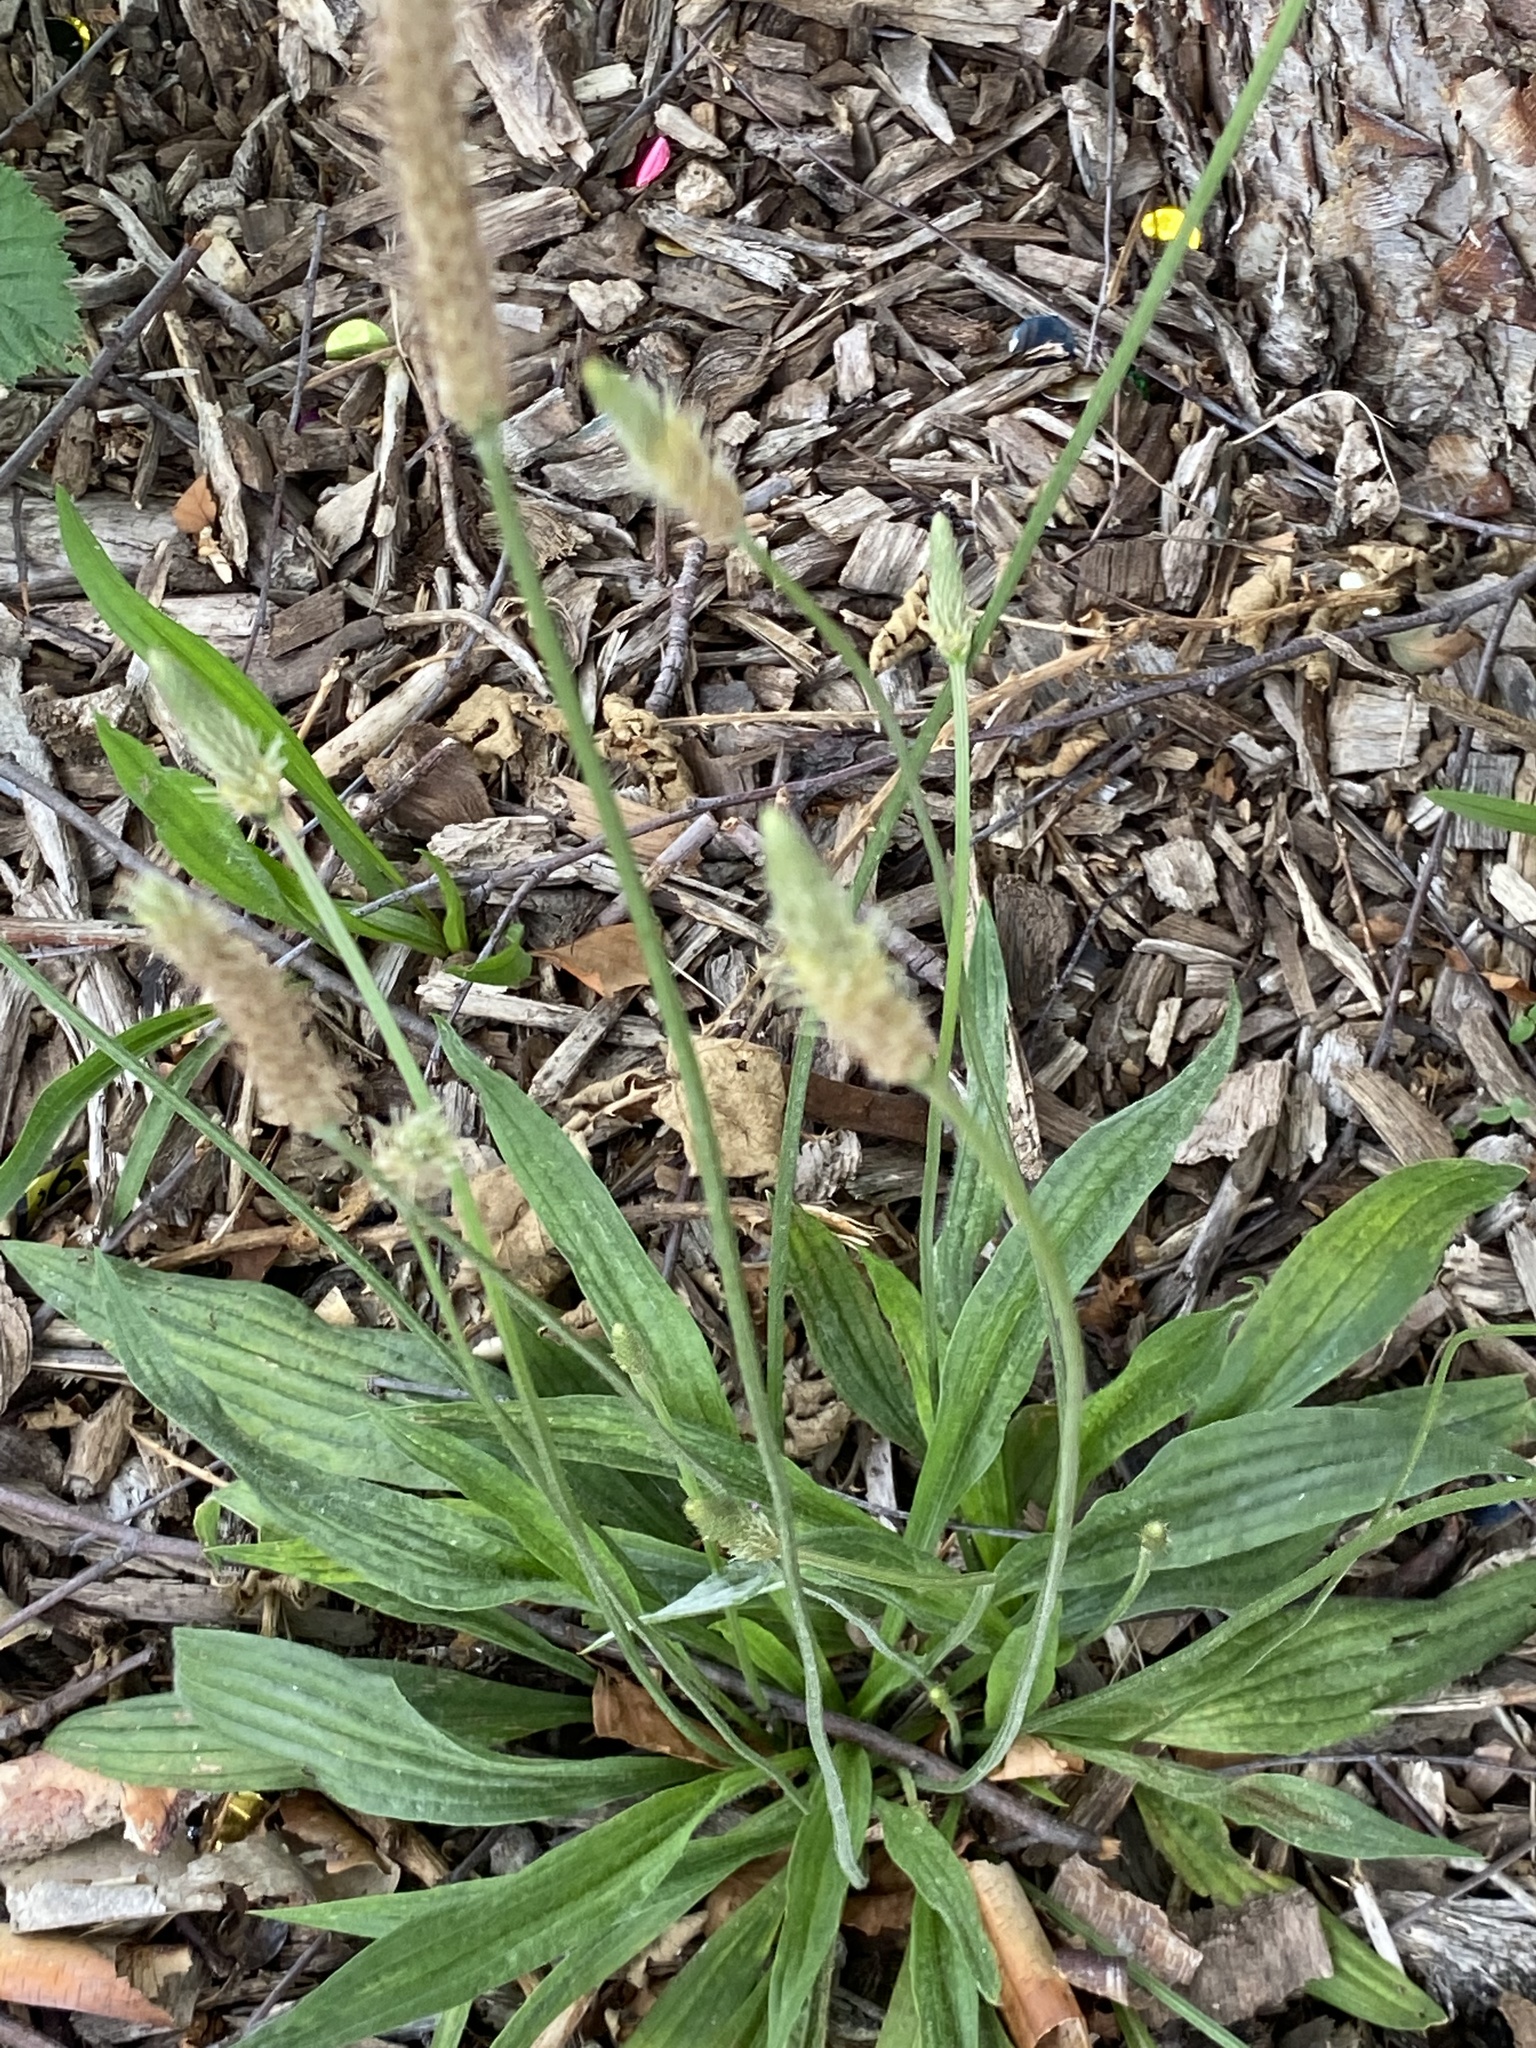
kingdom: Plantae
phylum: Tracheophyta
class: Magnoliopsida
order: Lamiales
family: Plantaginaceae
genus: Plantago
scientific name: Plantago lanceolata
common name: Ribwort plantain
